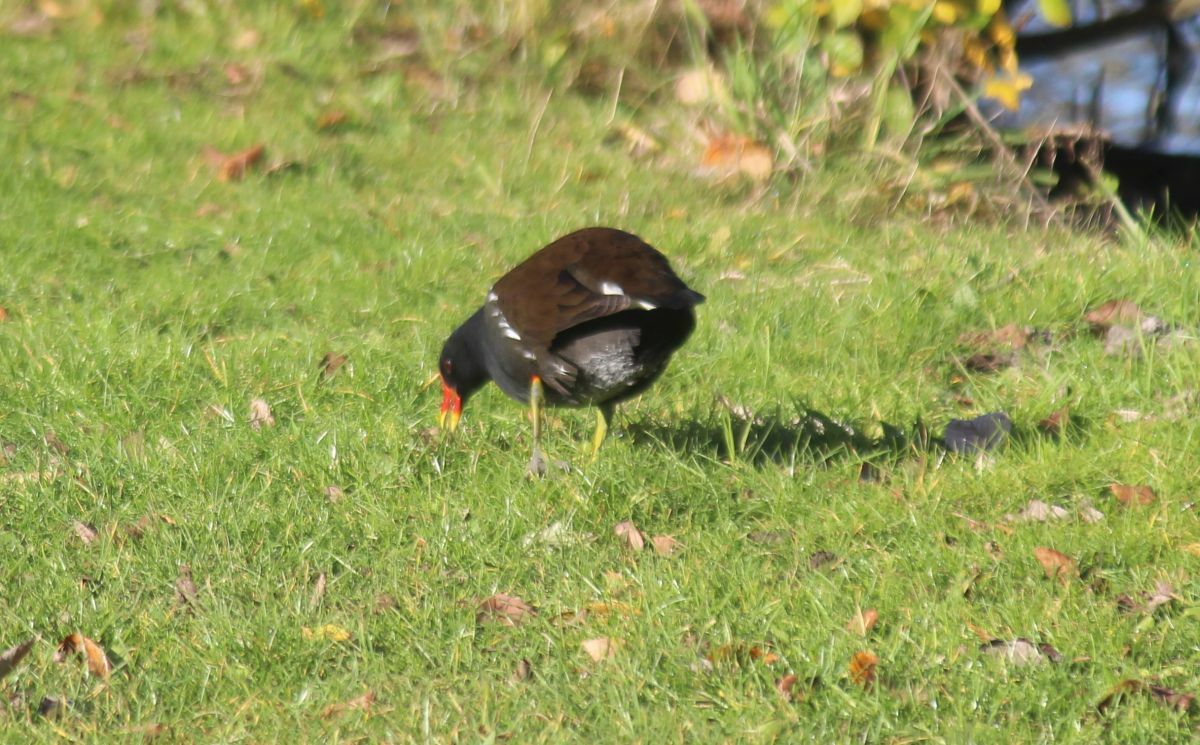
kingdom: Animalia
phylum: Chordata
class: Aves
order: Gruiformes
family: Rallidae
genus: Gallinula
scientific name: Gallinula chloropus
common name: Common moorhen
